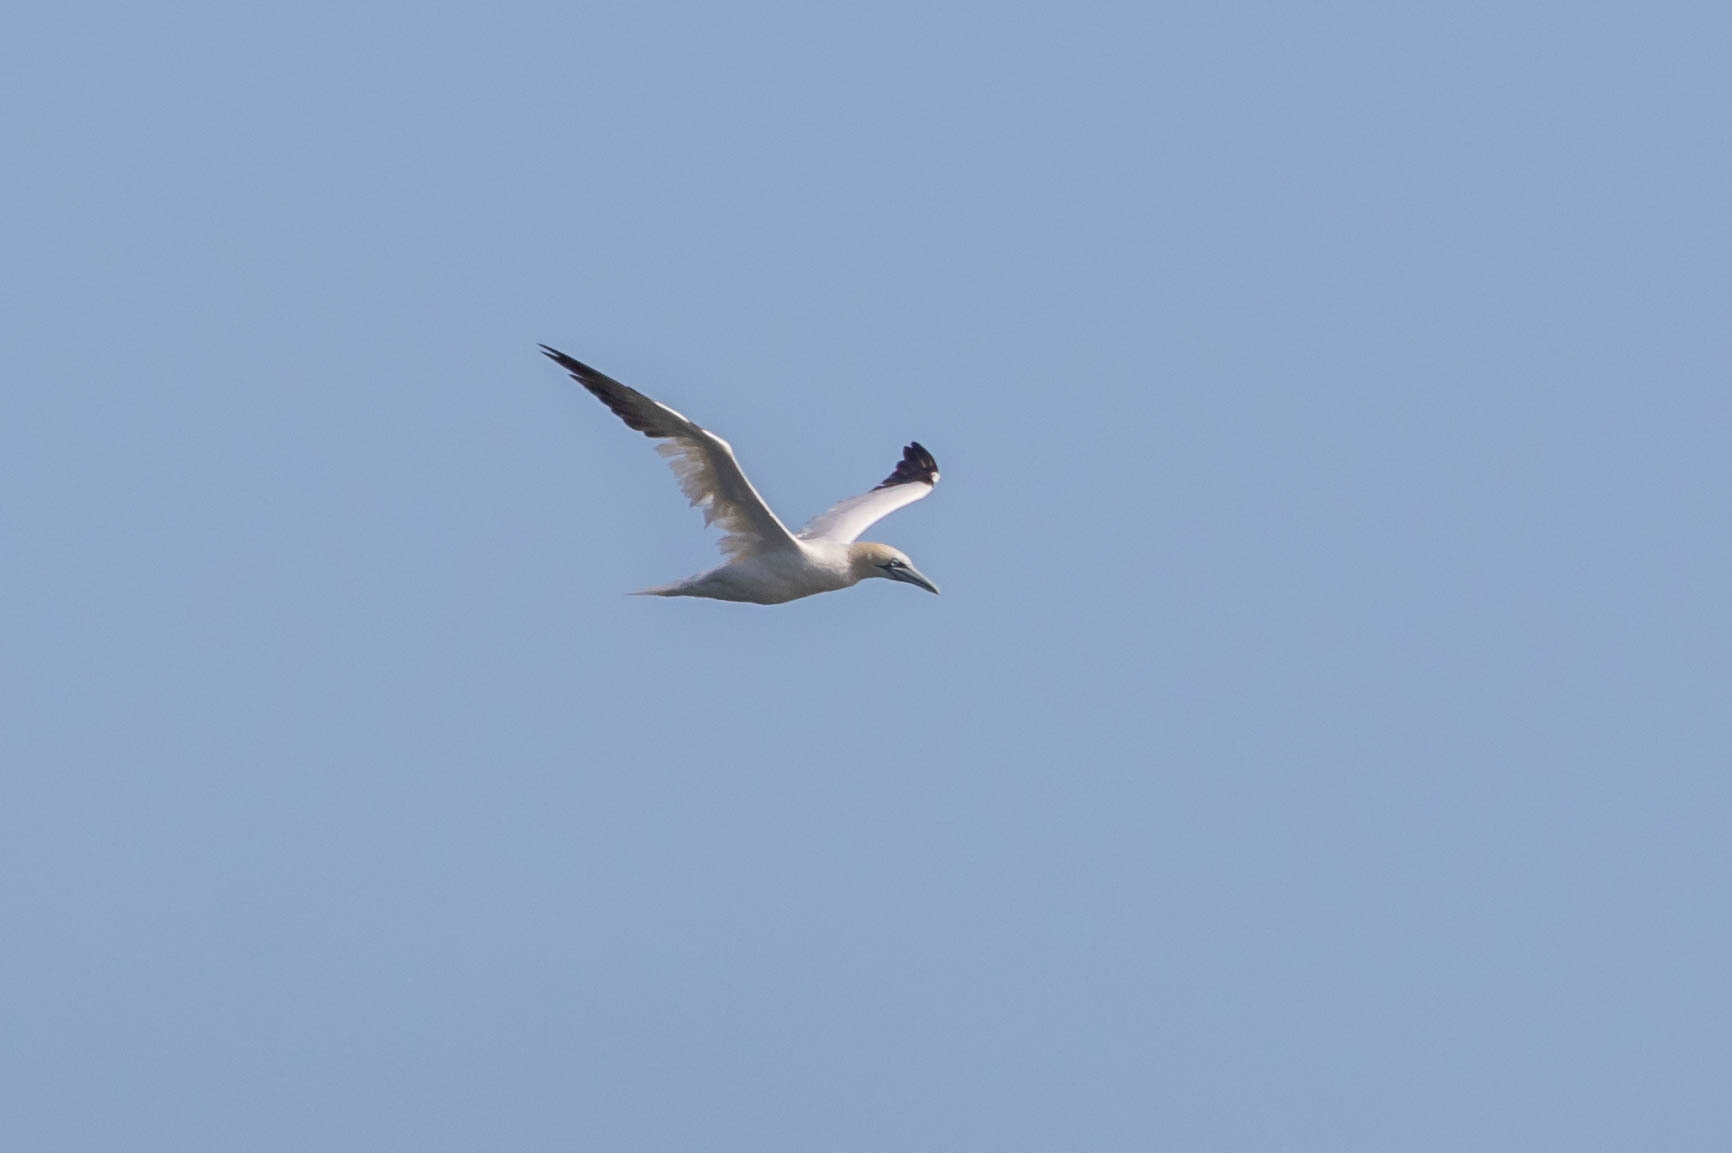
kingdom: Animalia
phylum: Chordata
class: Aves
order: Suliformes
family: Sulidae
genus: Morus
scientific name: Morus bassanus
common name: Northern gannet
